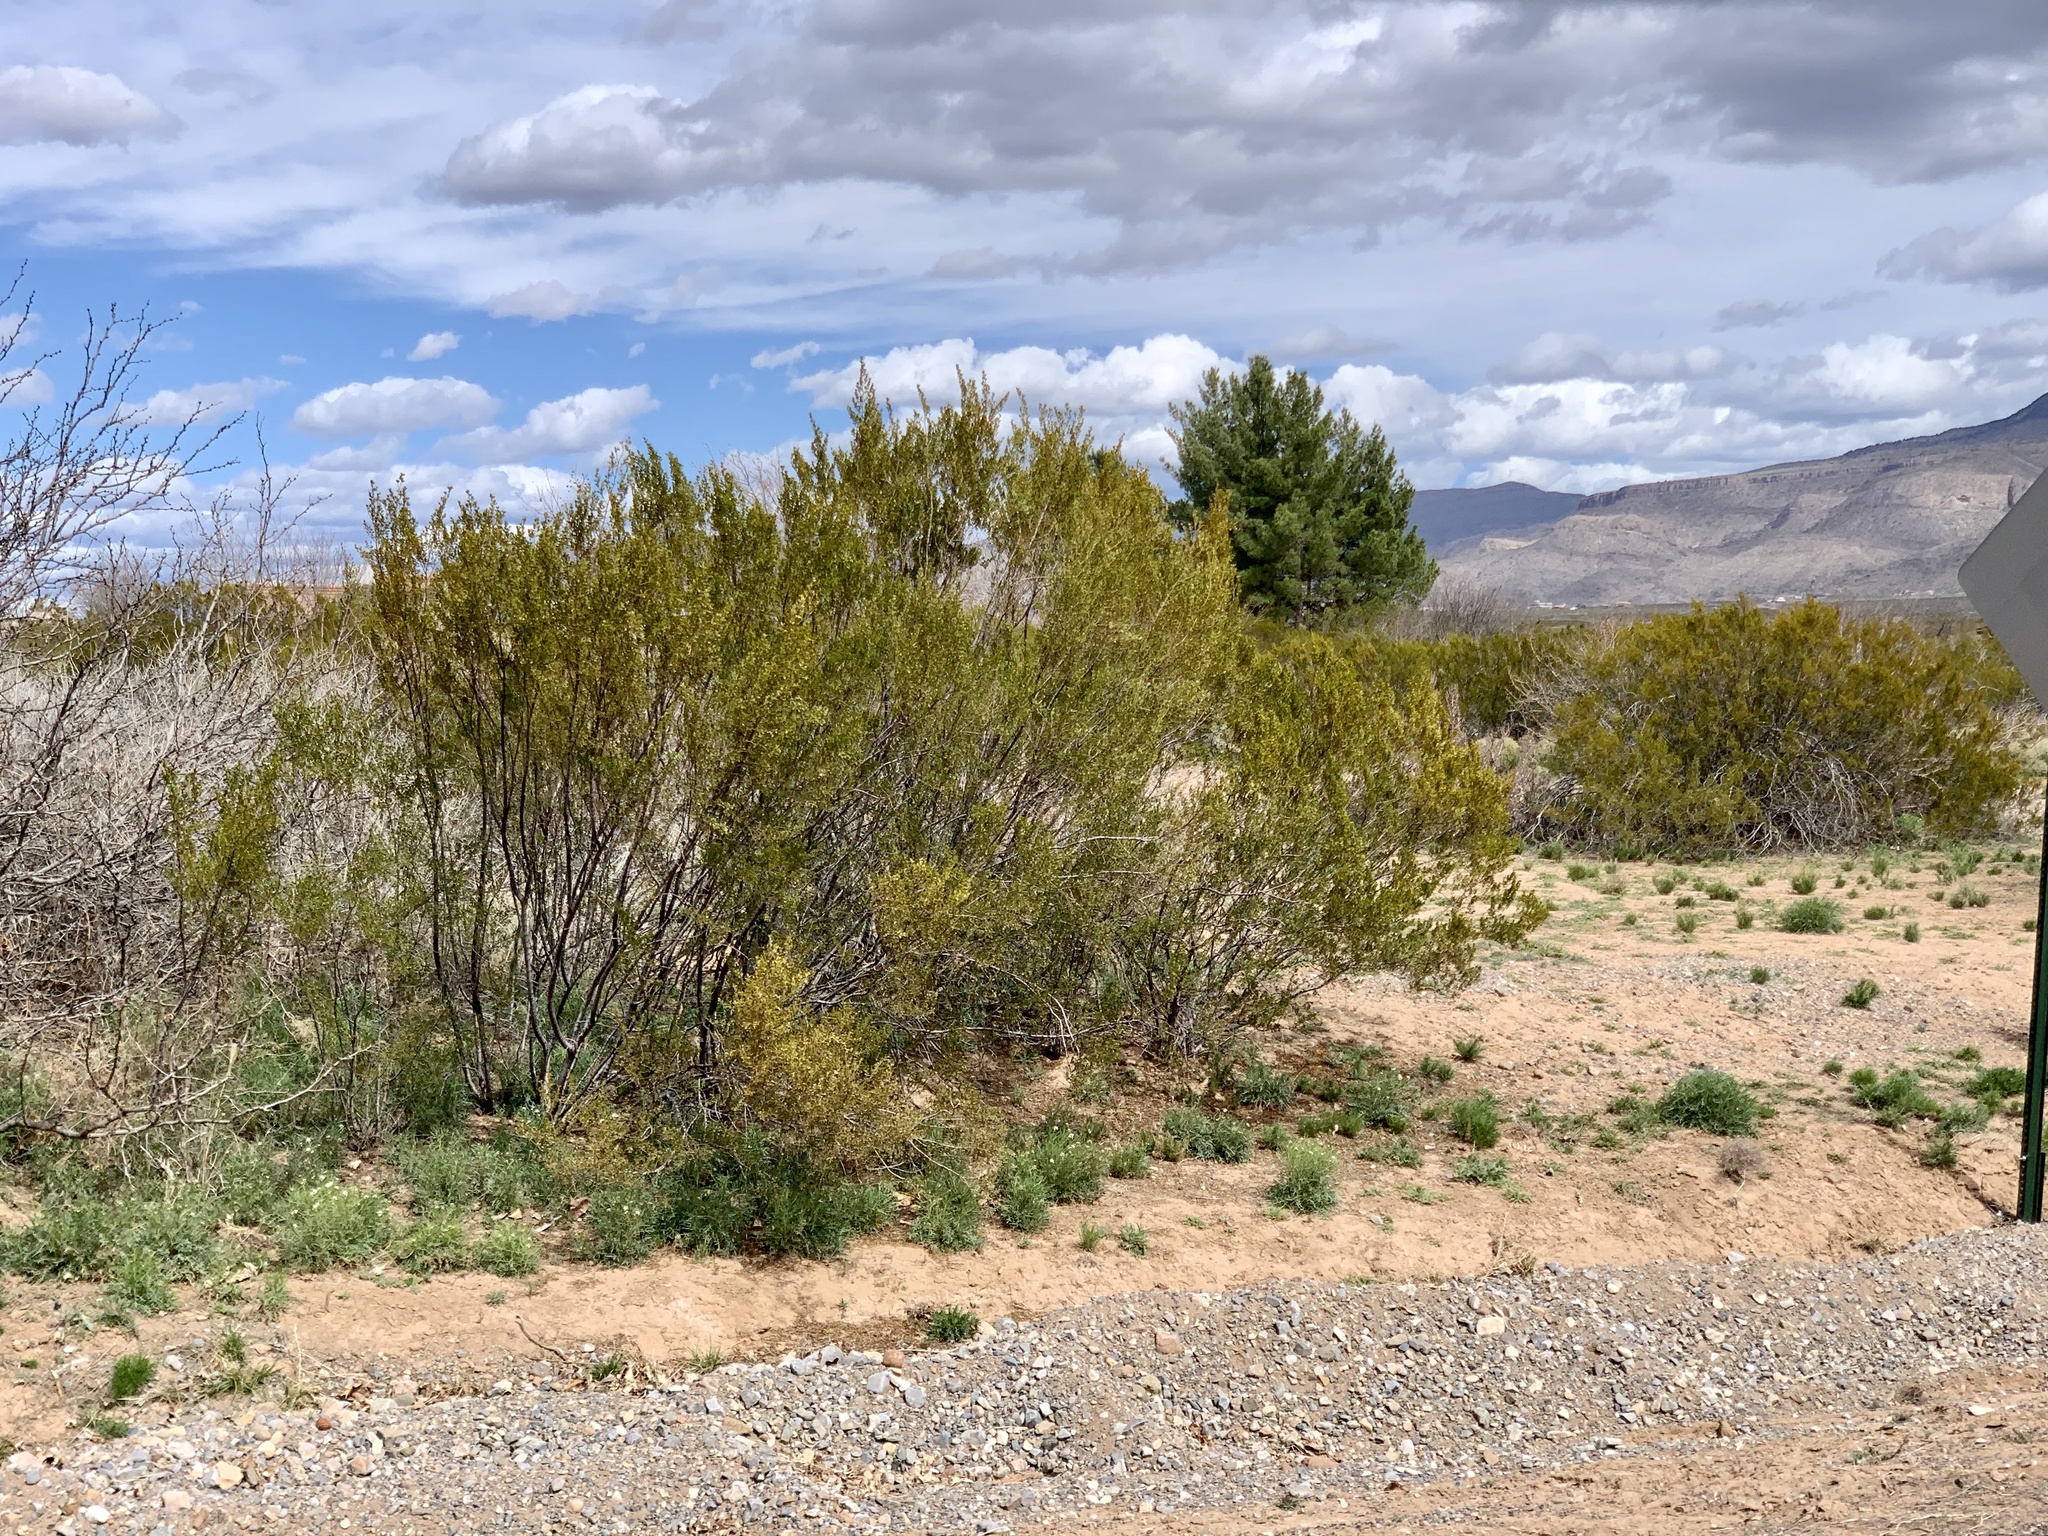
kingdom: Plantae
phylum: Tracheophyta
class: Magnoliopsida
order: Zygophyllales
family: Zygophyllaceae
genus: Larrea
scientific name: Larrea tridentata
